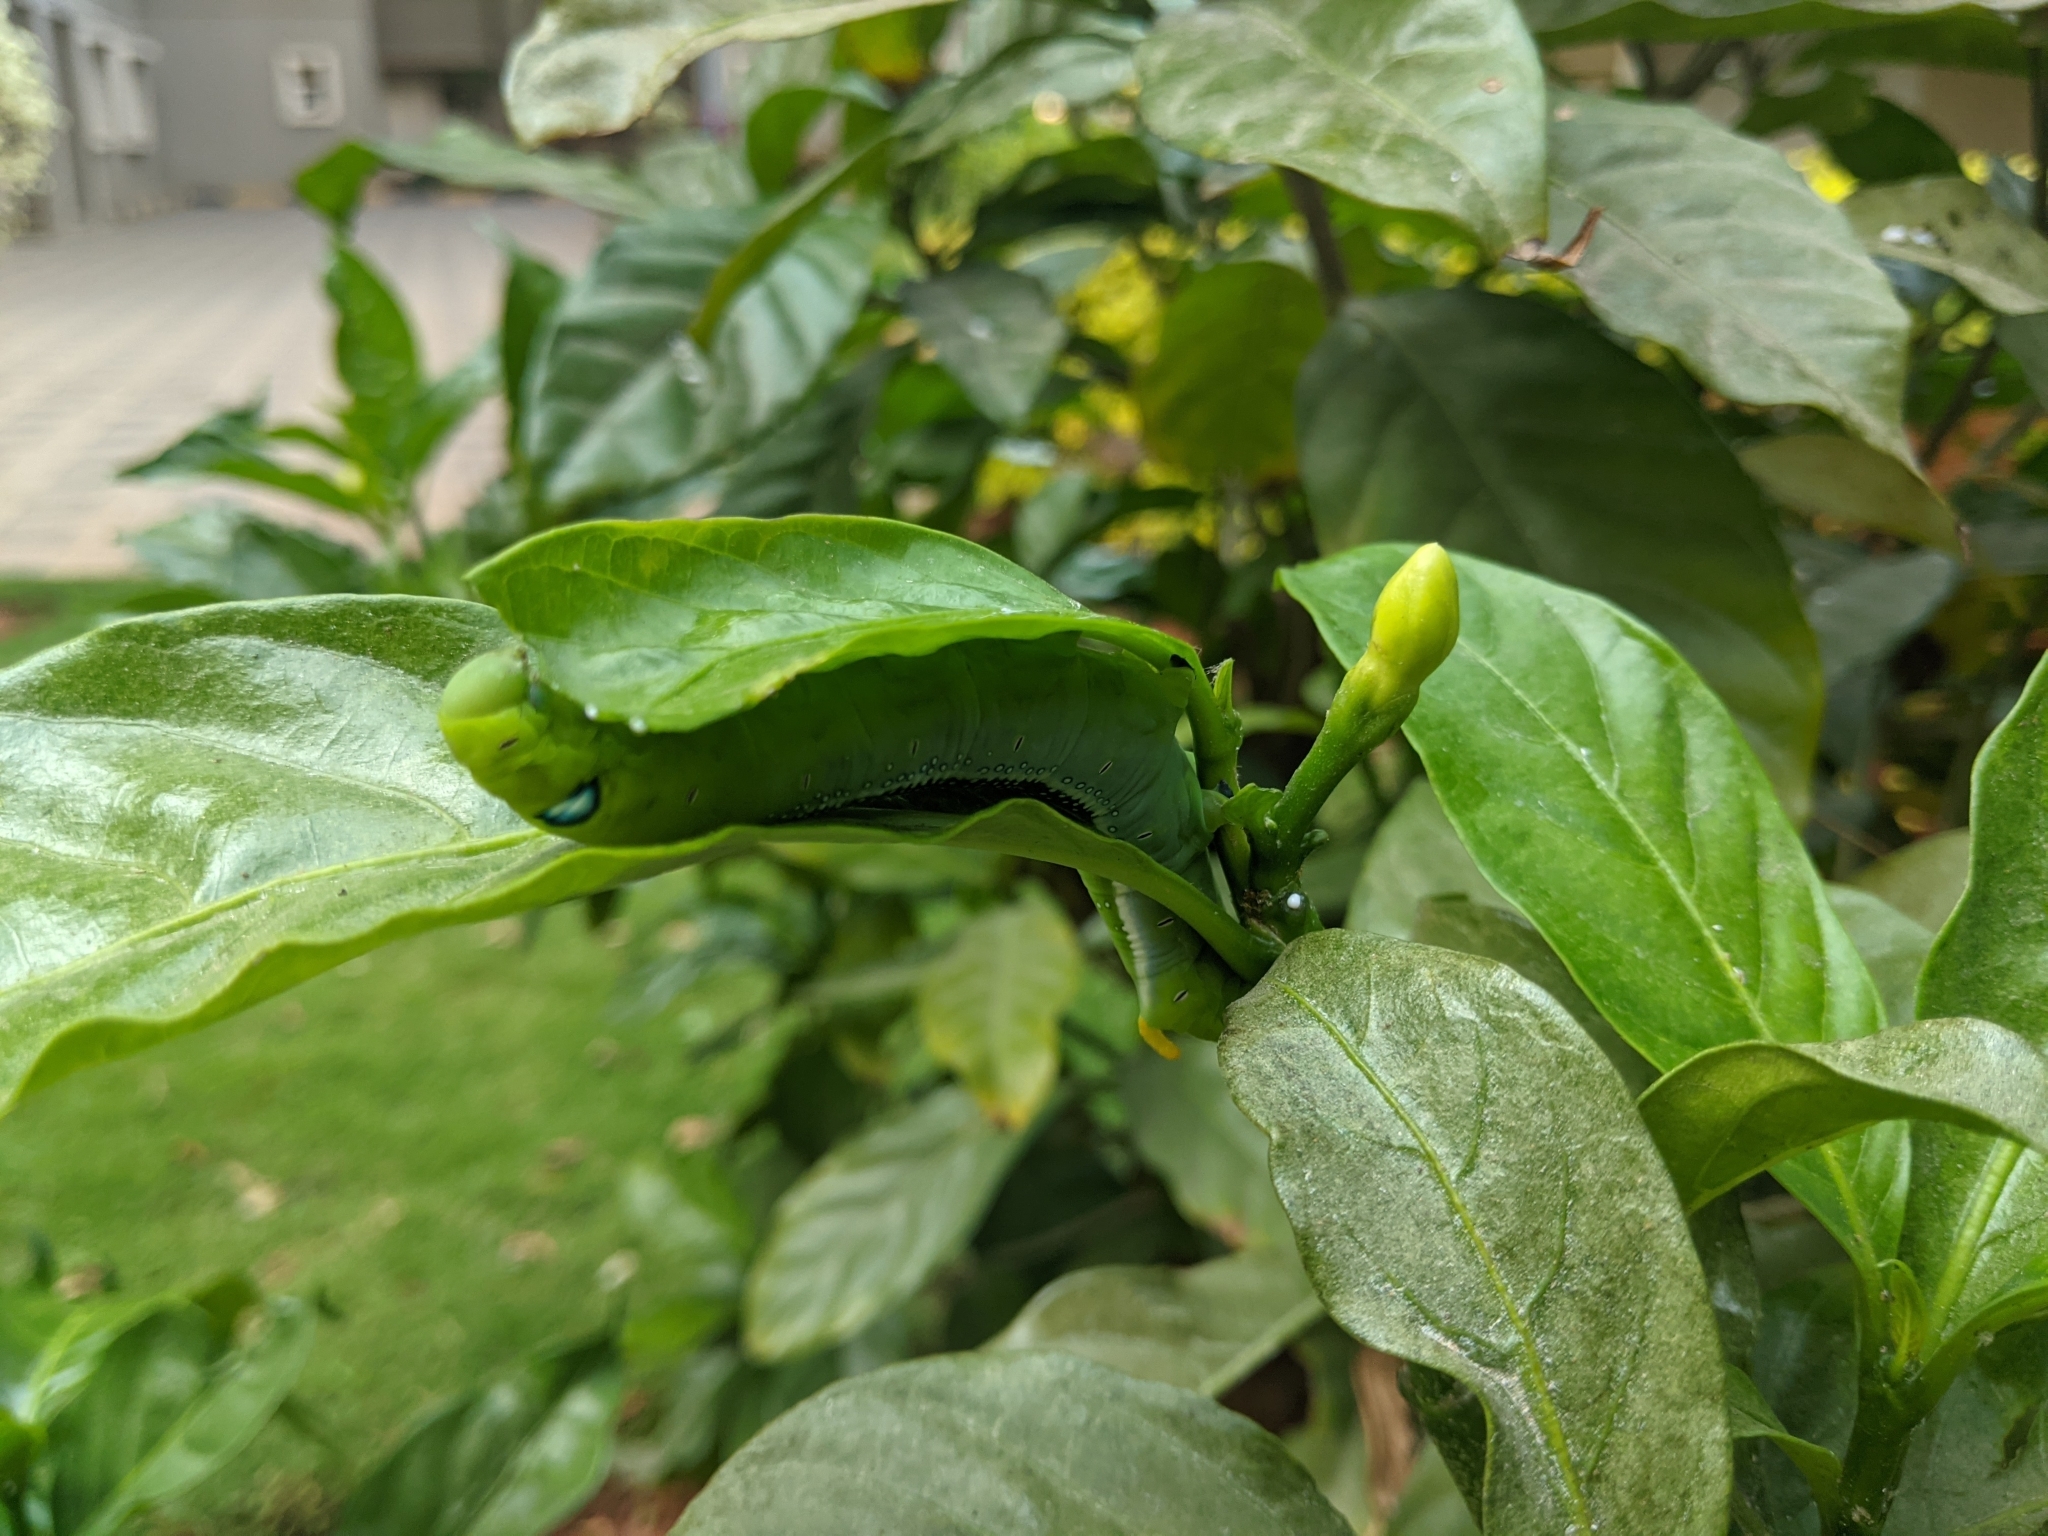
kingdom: Animalia
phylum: Arthropoda
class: Insecta
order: Lepidoptera
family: Sphingidae
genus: Daphnis
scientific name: Daphnis nerii
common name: Oleander hawk-moth
